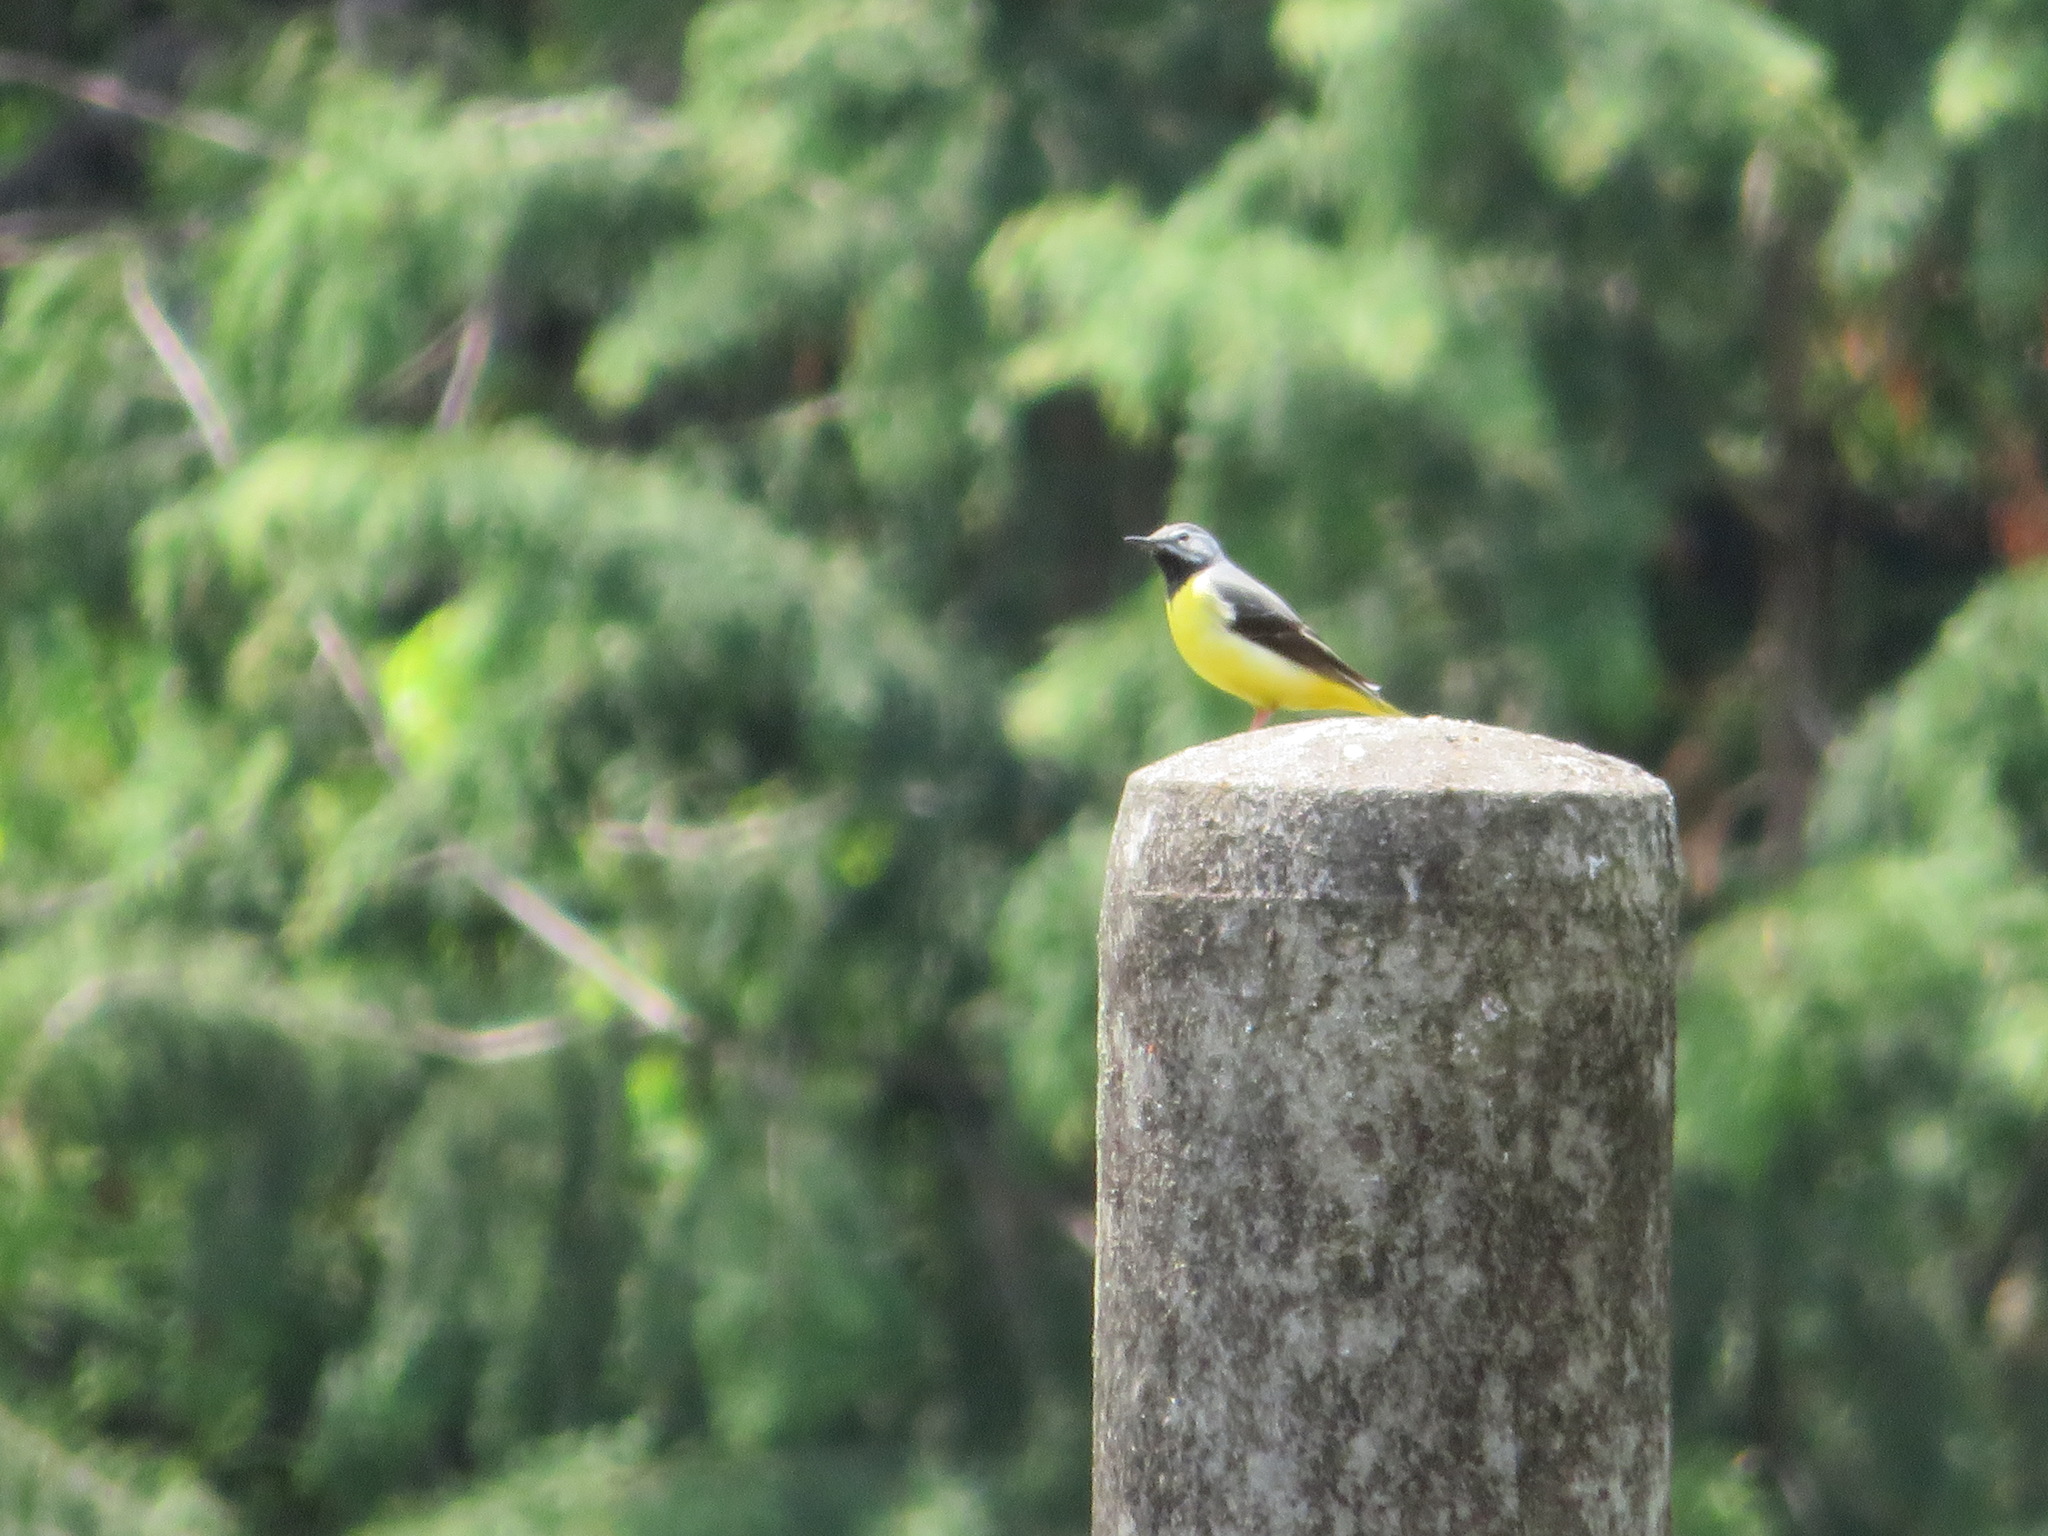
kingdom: Animalia
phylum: Chordata
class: Aves
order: Passeriformes
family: Motacillidae
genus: Motacilla
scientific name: Motacilla cinerea
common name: Grey wagtail
